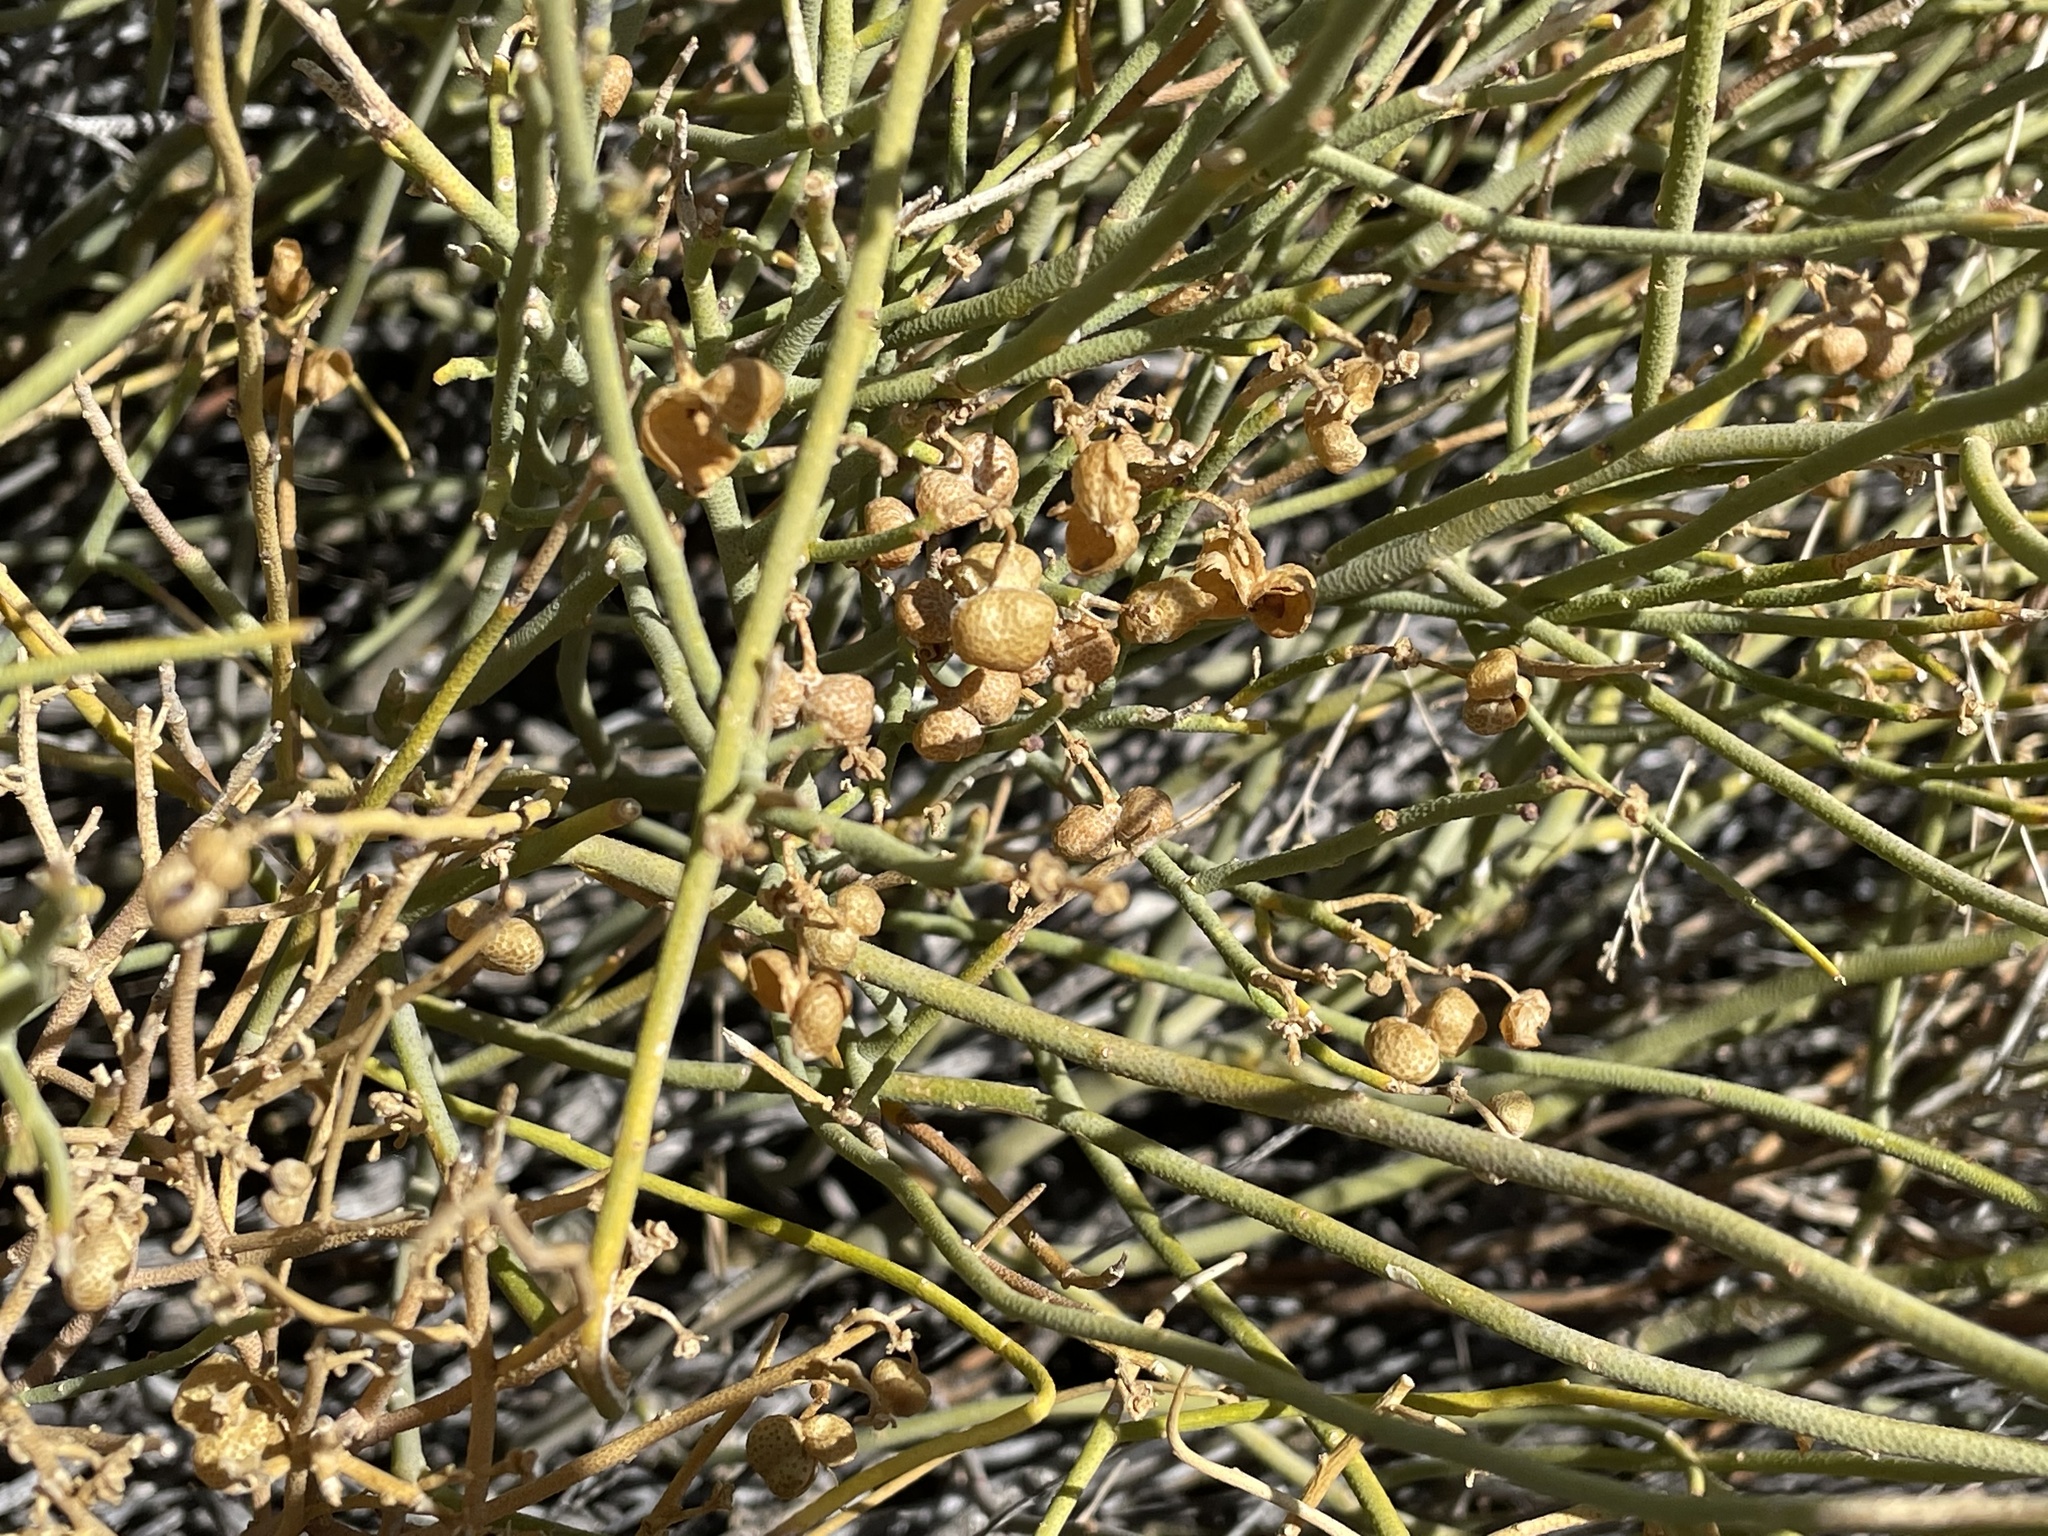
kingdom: Plantae
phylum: Tracheophyta
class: Magnoliopsida
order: Sapindales
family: Rutaceae
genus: Thamnosma
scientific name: Thamnosma montana
